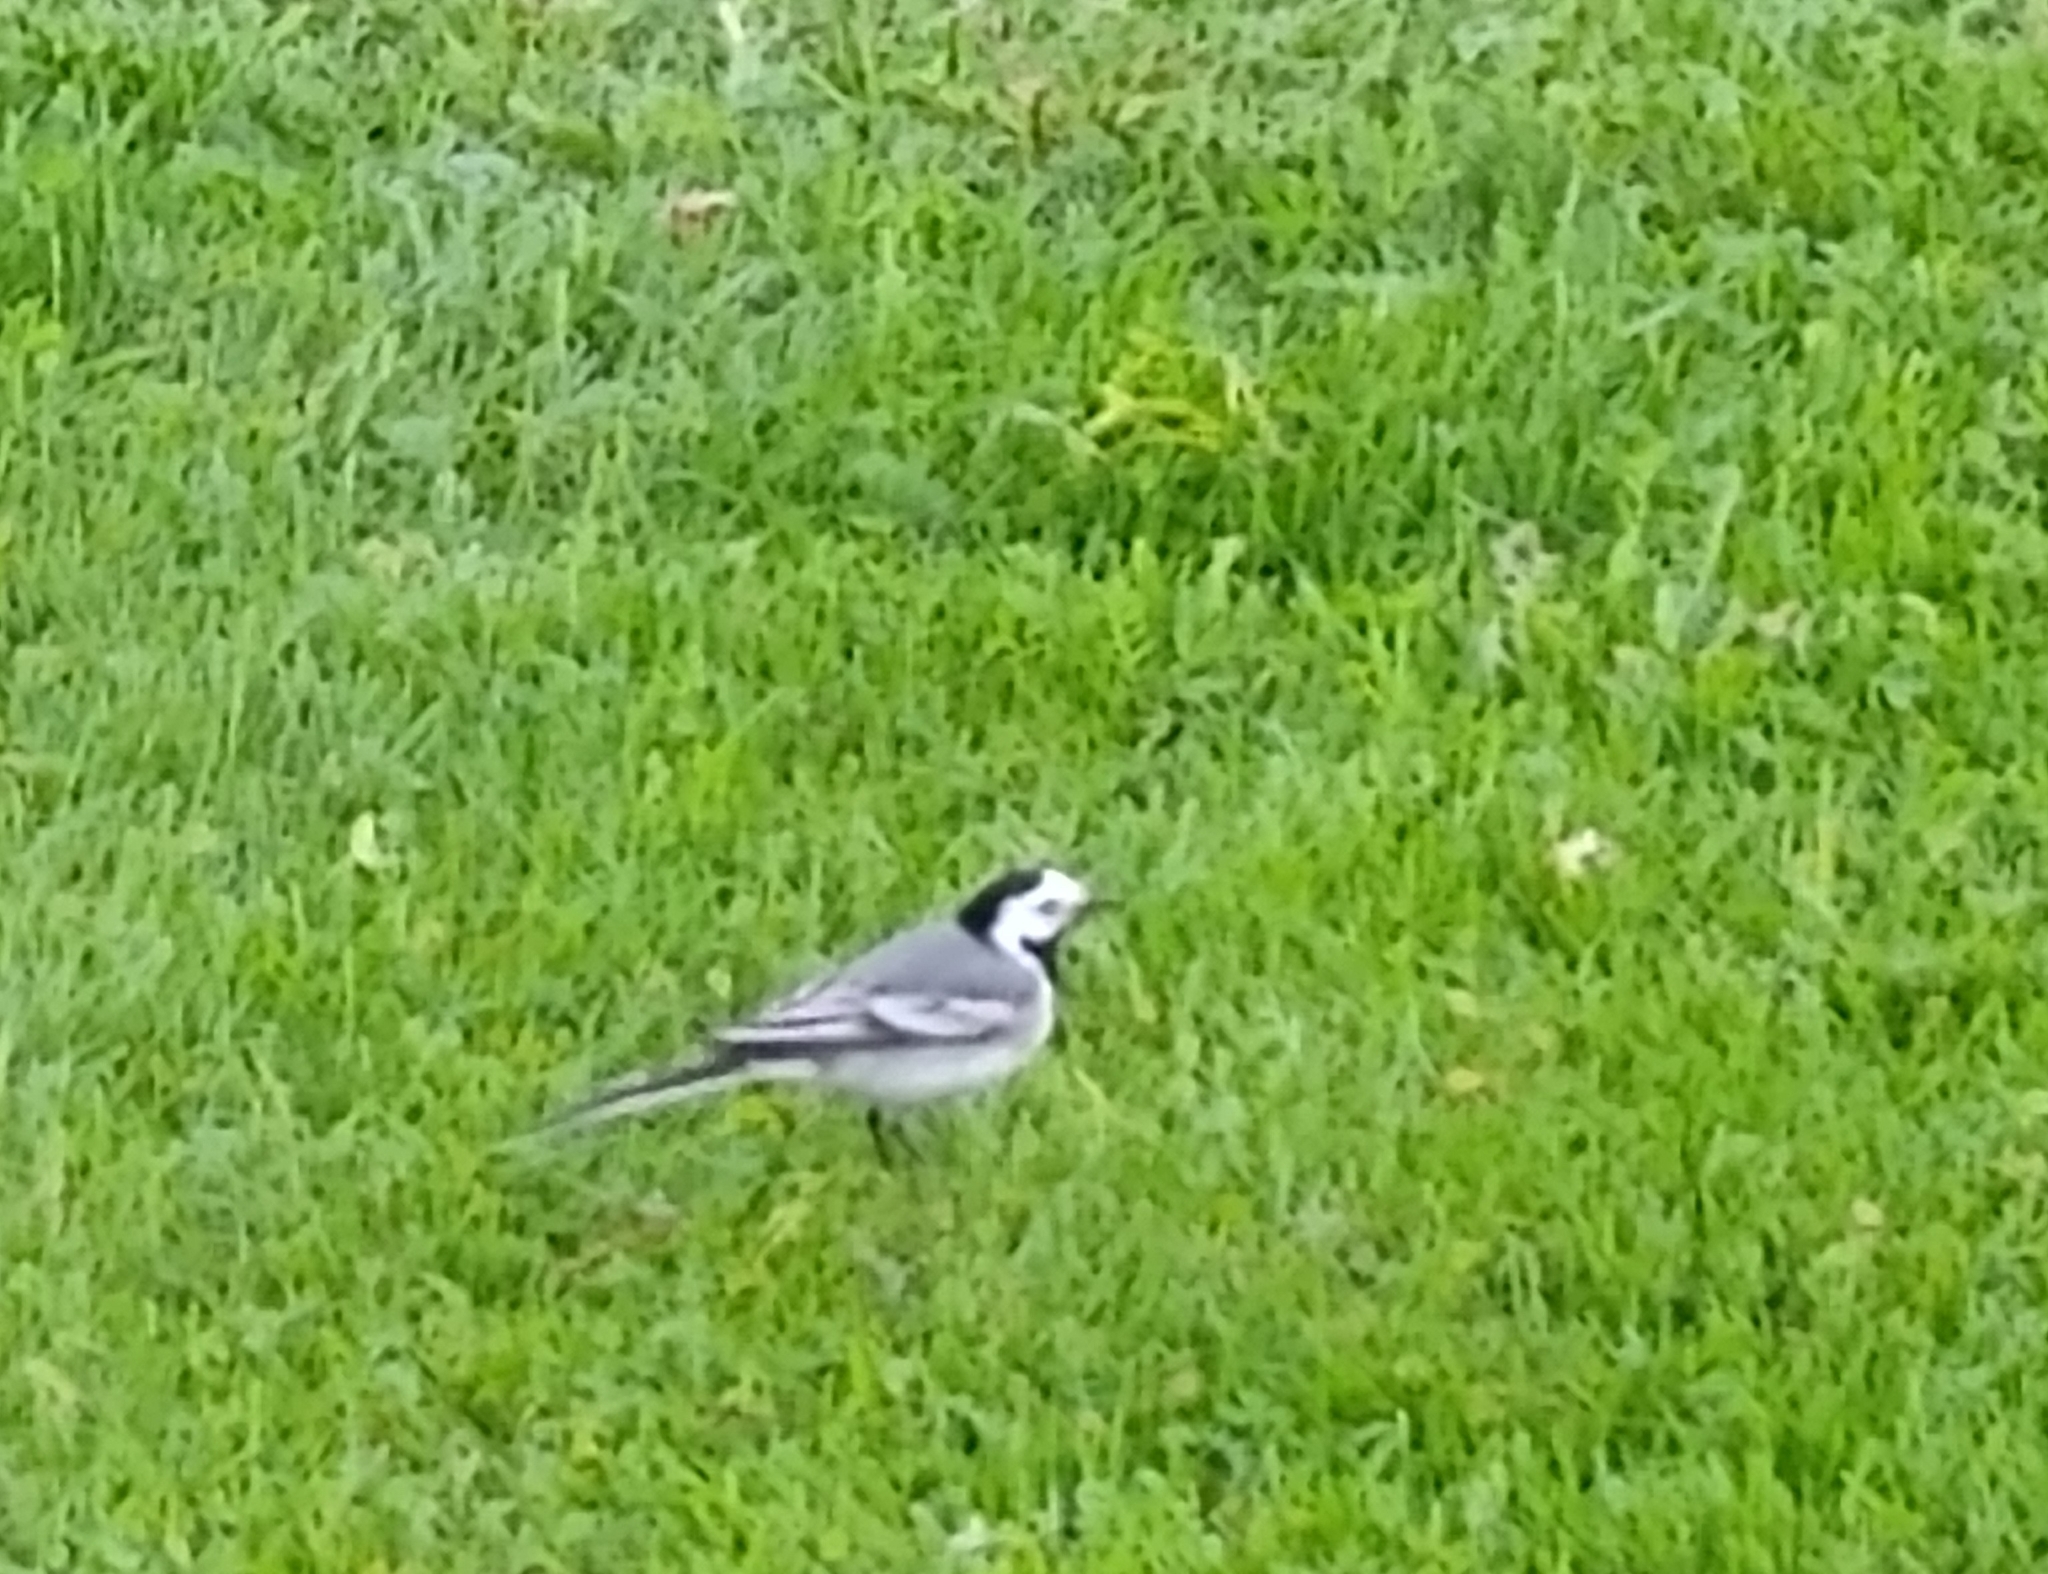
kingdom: Animalia
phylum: Chordata
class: Aves
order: Passeriformes
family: Motacillidae
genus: Motacilla
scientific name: Motacilla alba
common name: White wagtail
